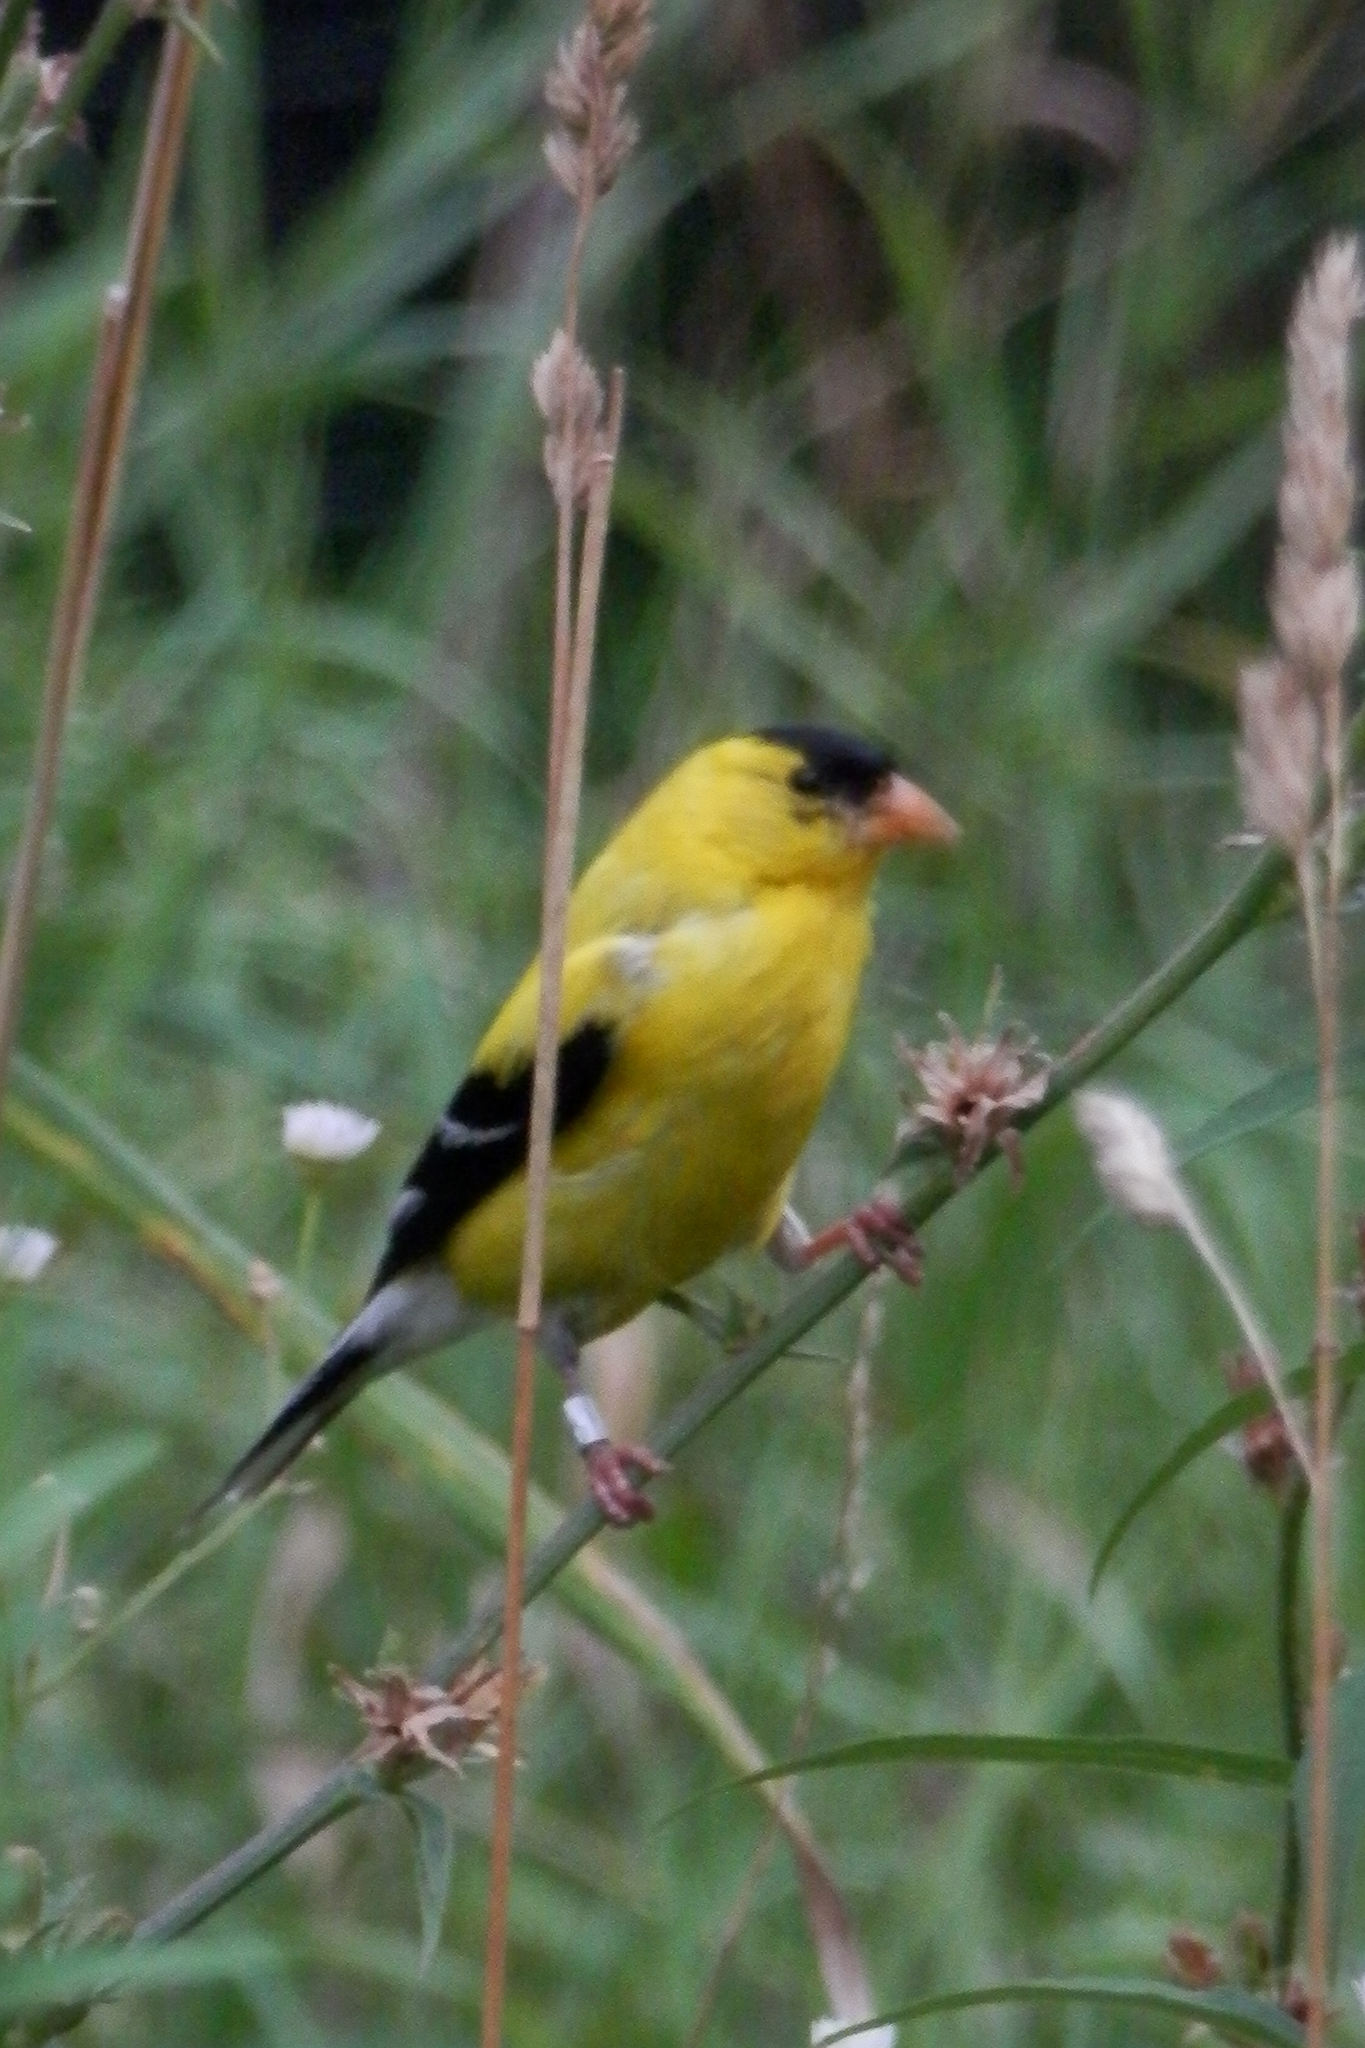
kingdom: Animalia
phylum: Chordata
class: Aves
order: Passeriformes
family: Fringillidae
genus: Spinus
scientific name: Spinus tristis
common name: American goldfinch
